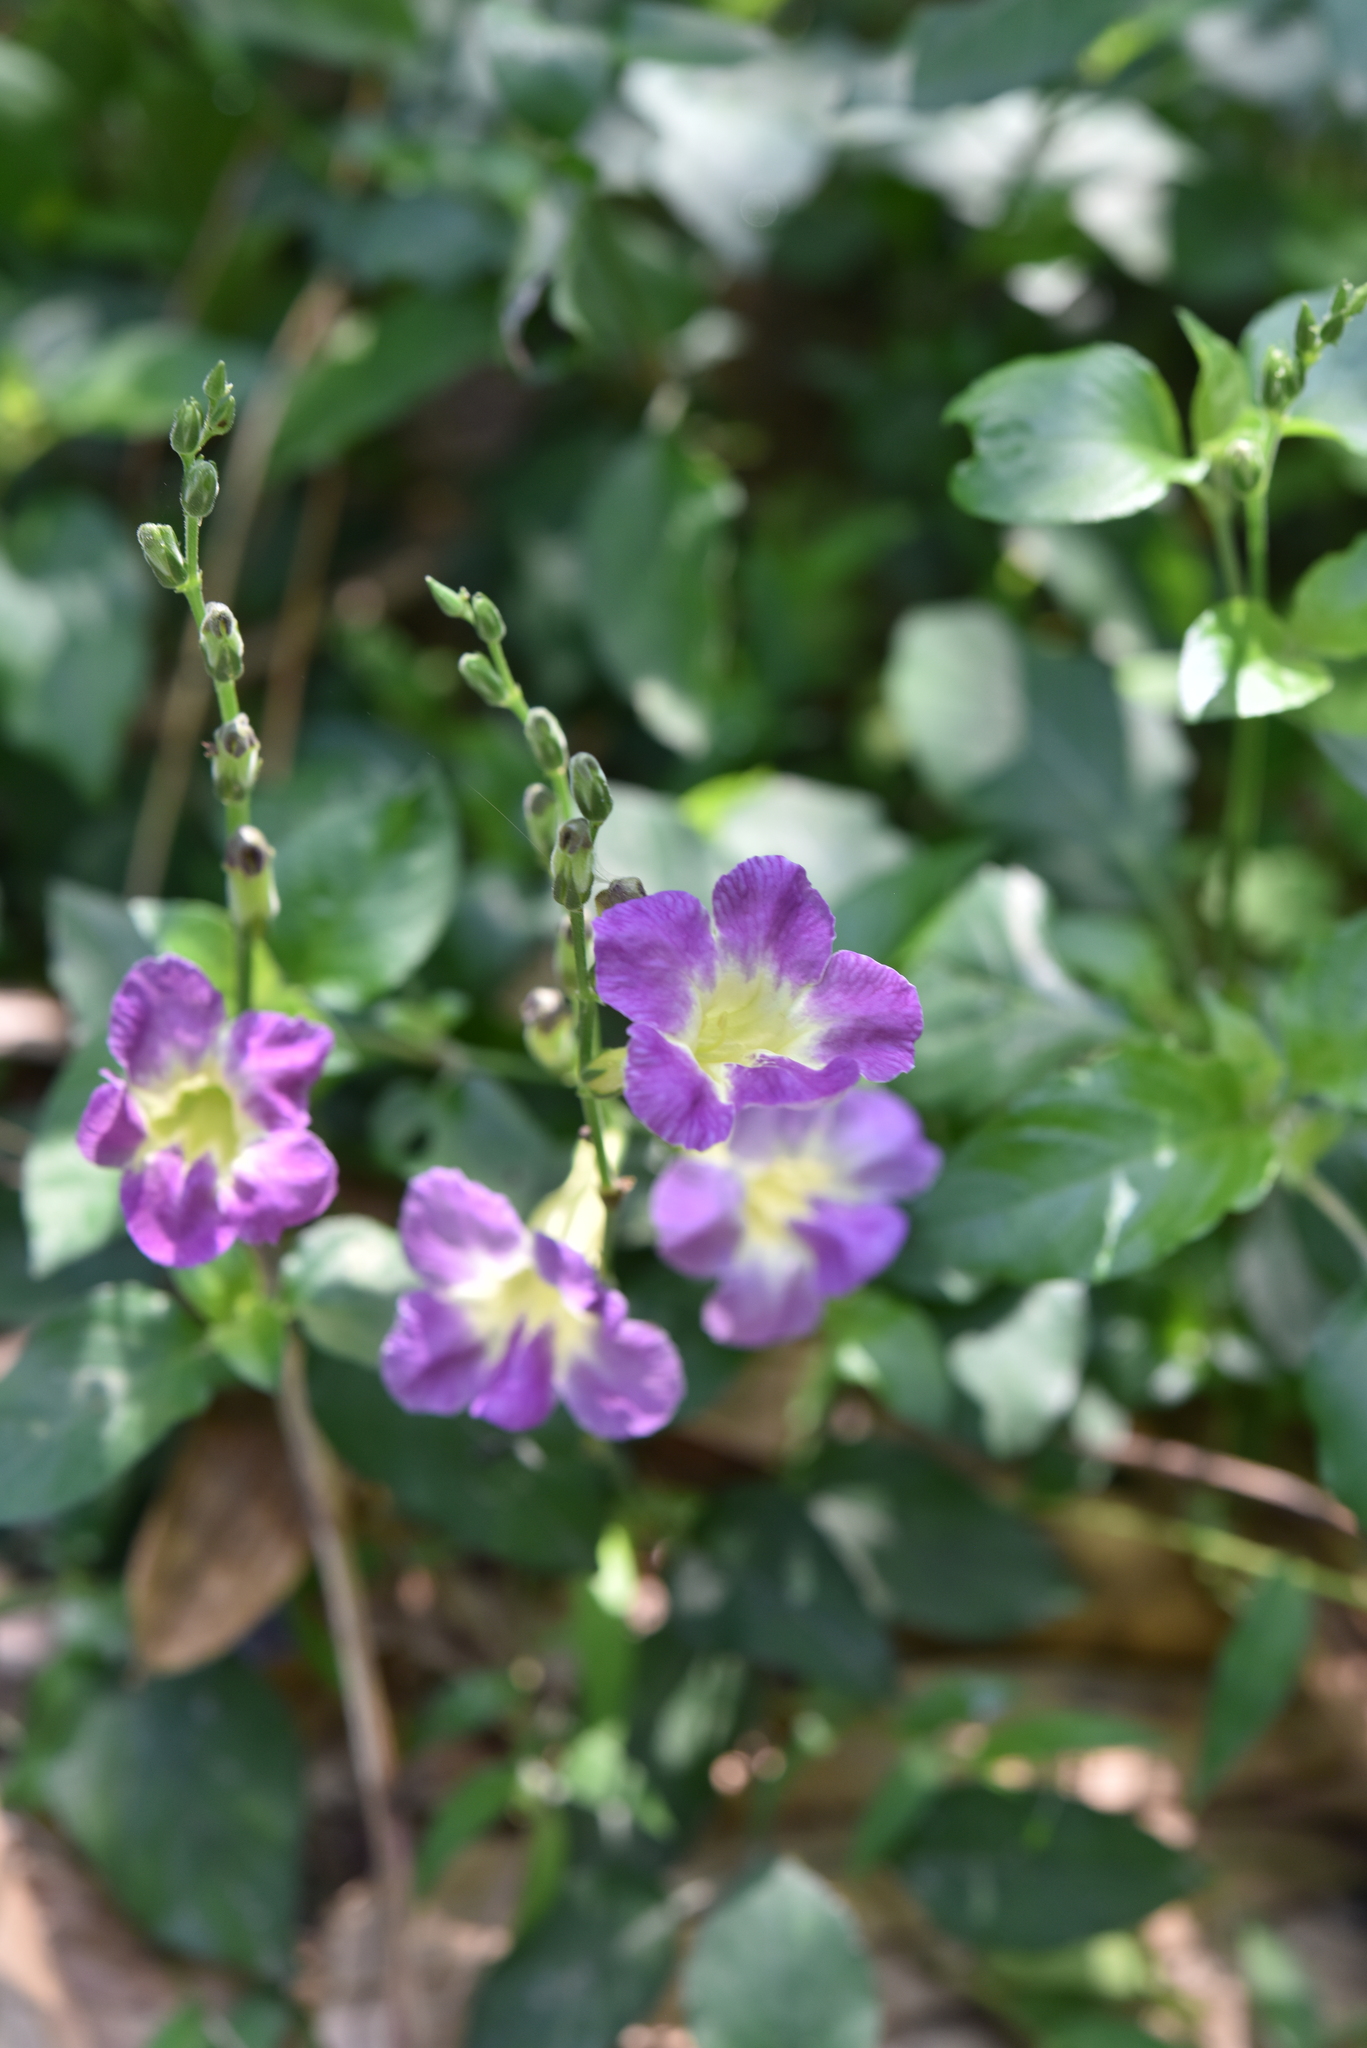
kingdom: Plantae
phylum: Tracheophyta
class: Magnoliopsida
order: Lamiales
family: Acanthaceae
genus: Asystasia
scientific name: Asystasia gangetica
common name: Chinese violet
